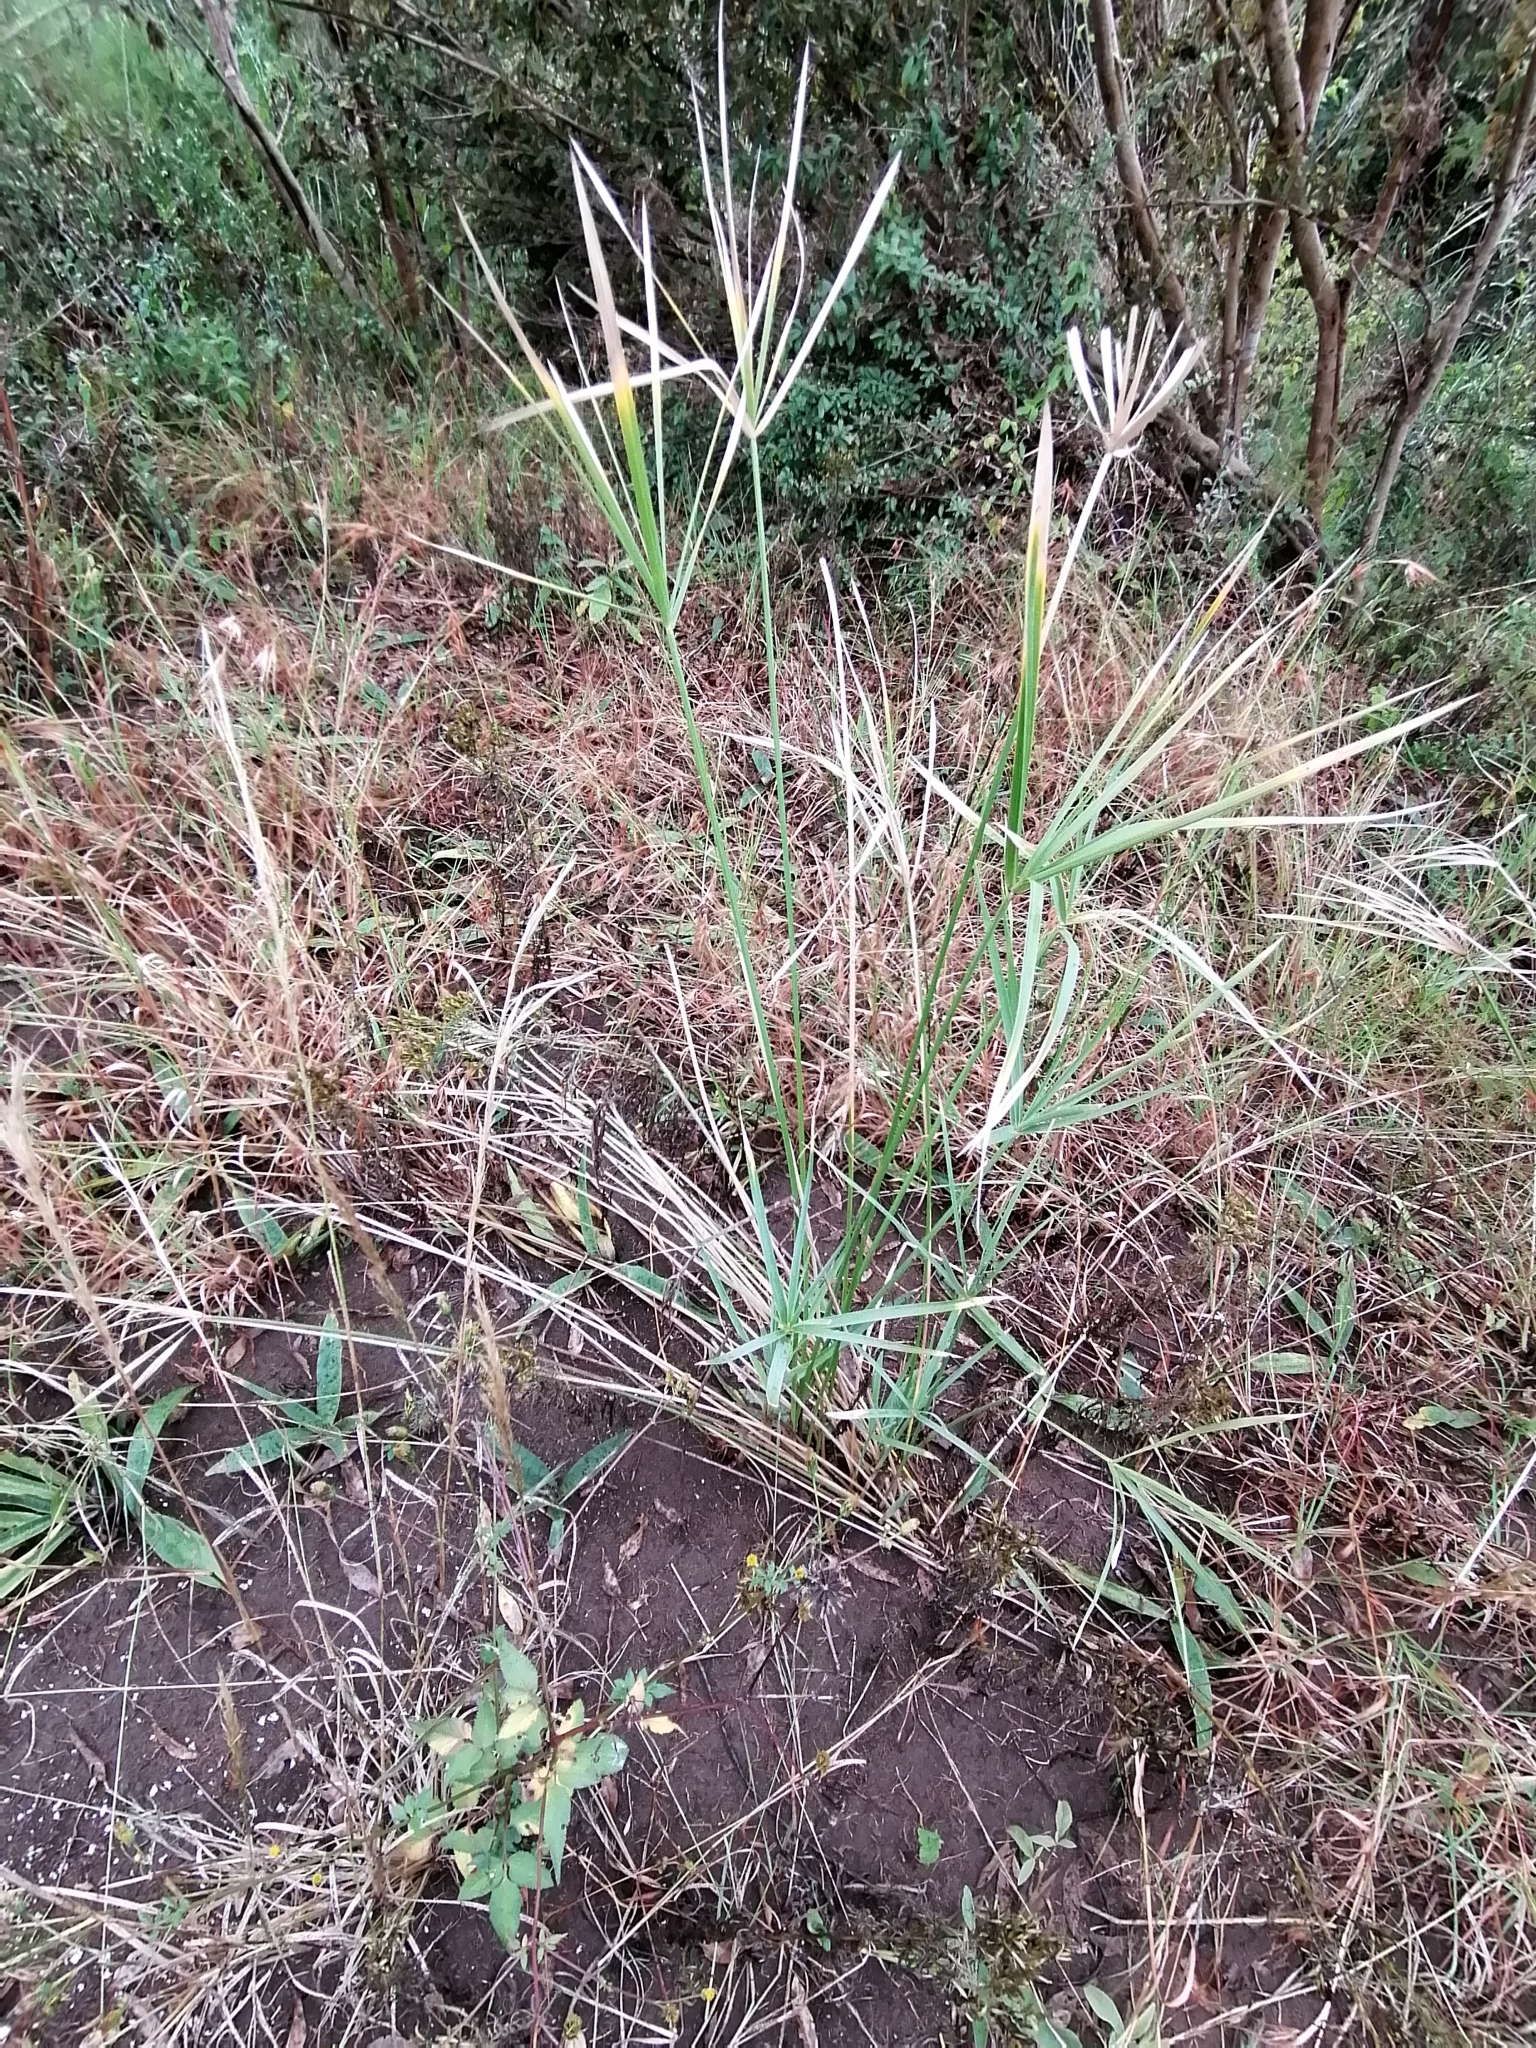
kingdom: Plantae
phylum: Tracheophyta
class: Liliopsida
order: Poales
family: Poaceae
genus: Chloris
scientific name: Chloris virgata
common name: Feathery rhodes-grass
